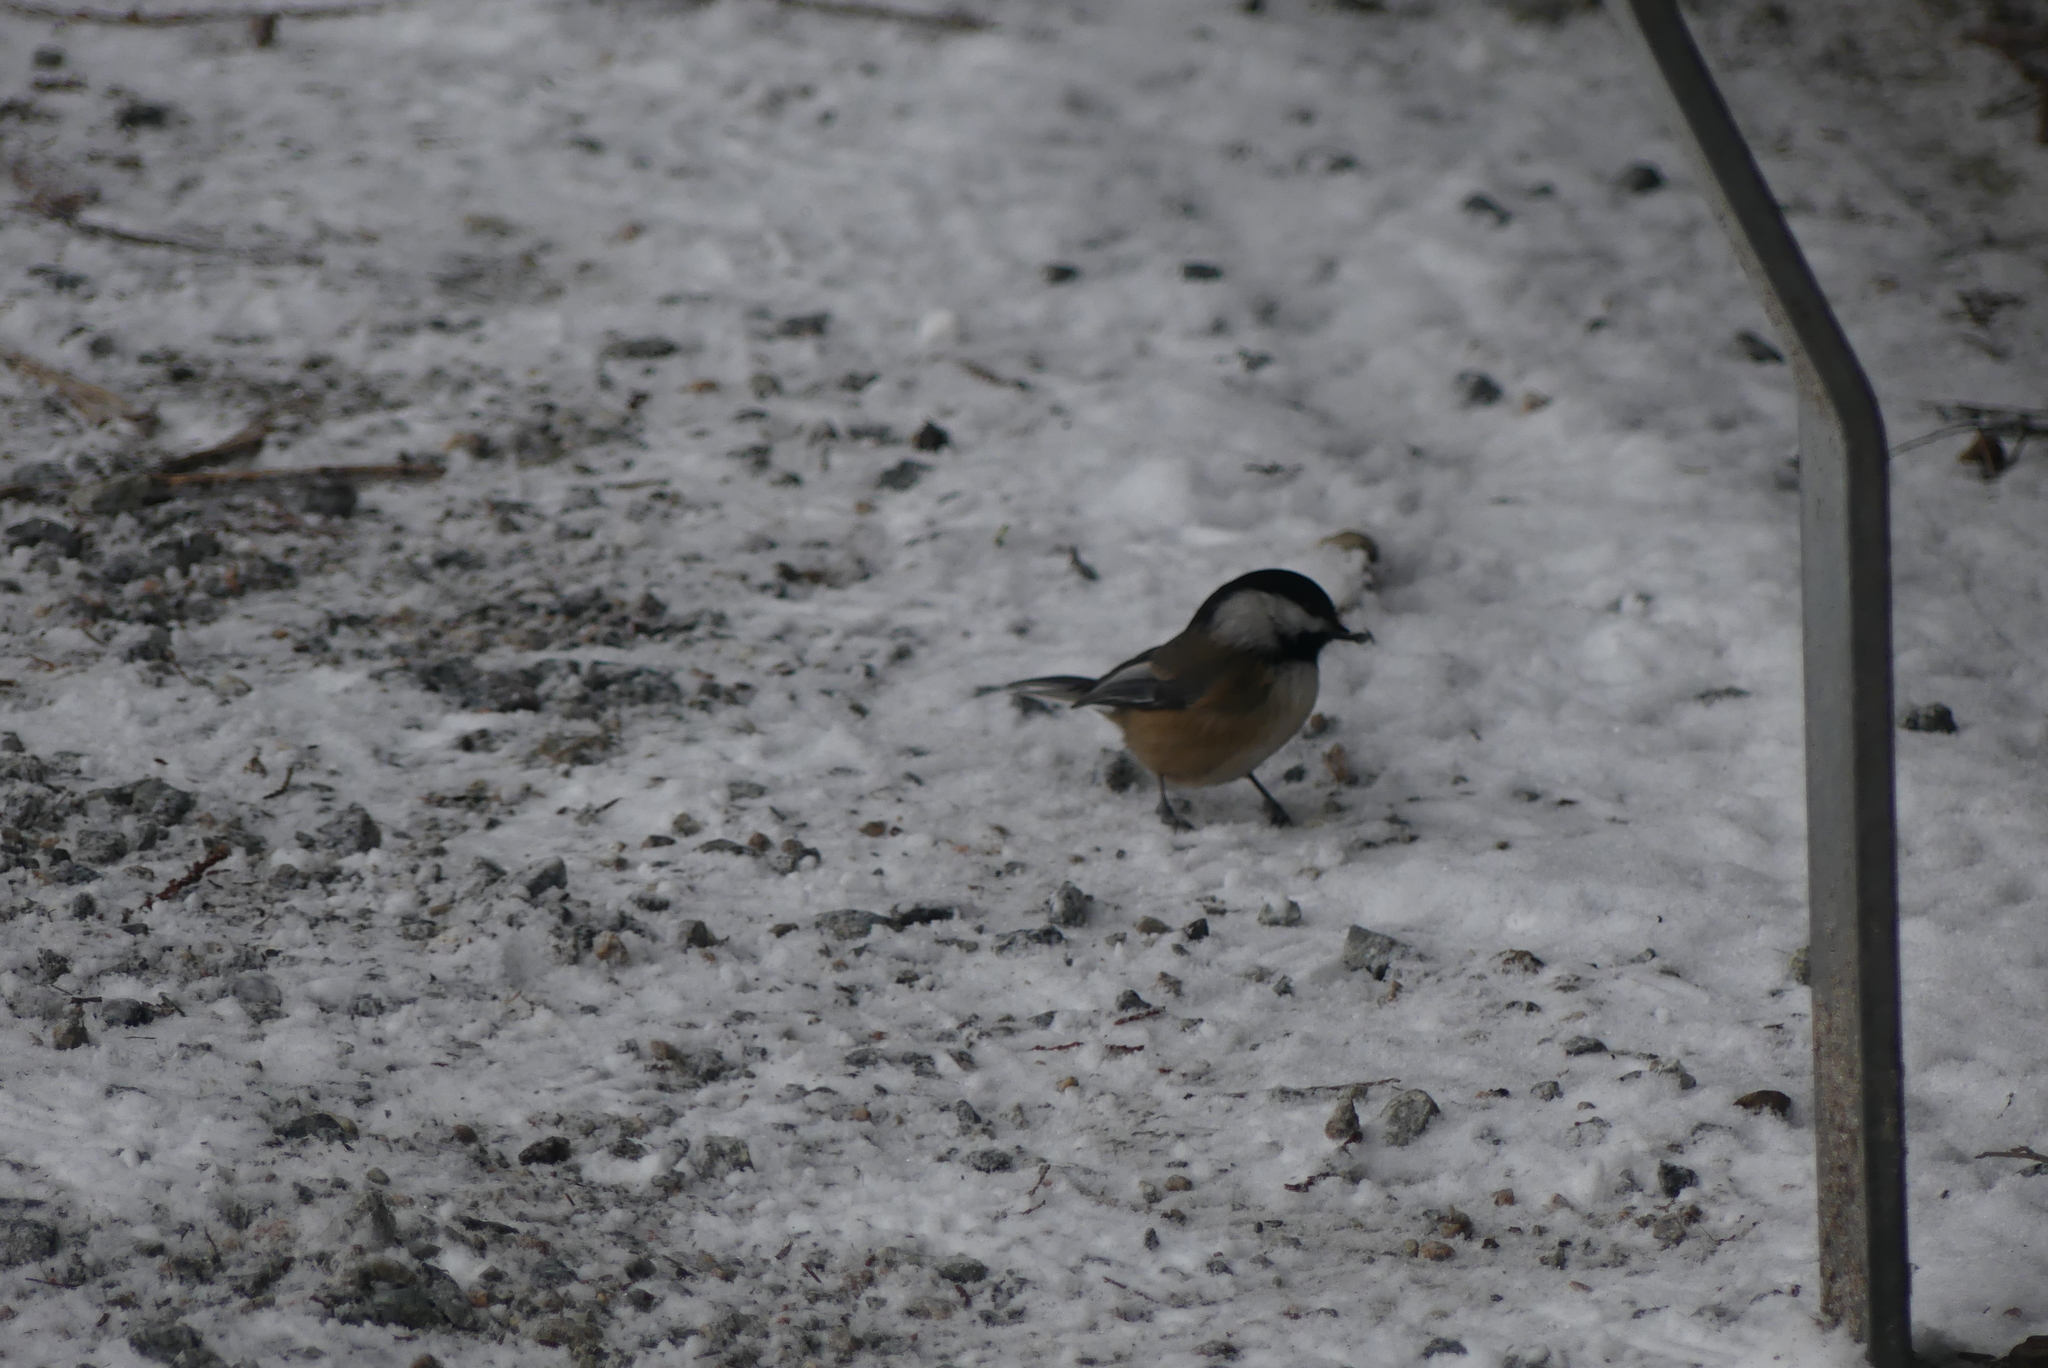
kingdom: Animalia
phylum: Chordata
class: Aves
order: Passeriformes
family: Paridae
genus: Poecile
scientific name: Poecile atricapillus
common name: Black-capped chickadee
